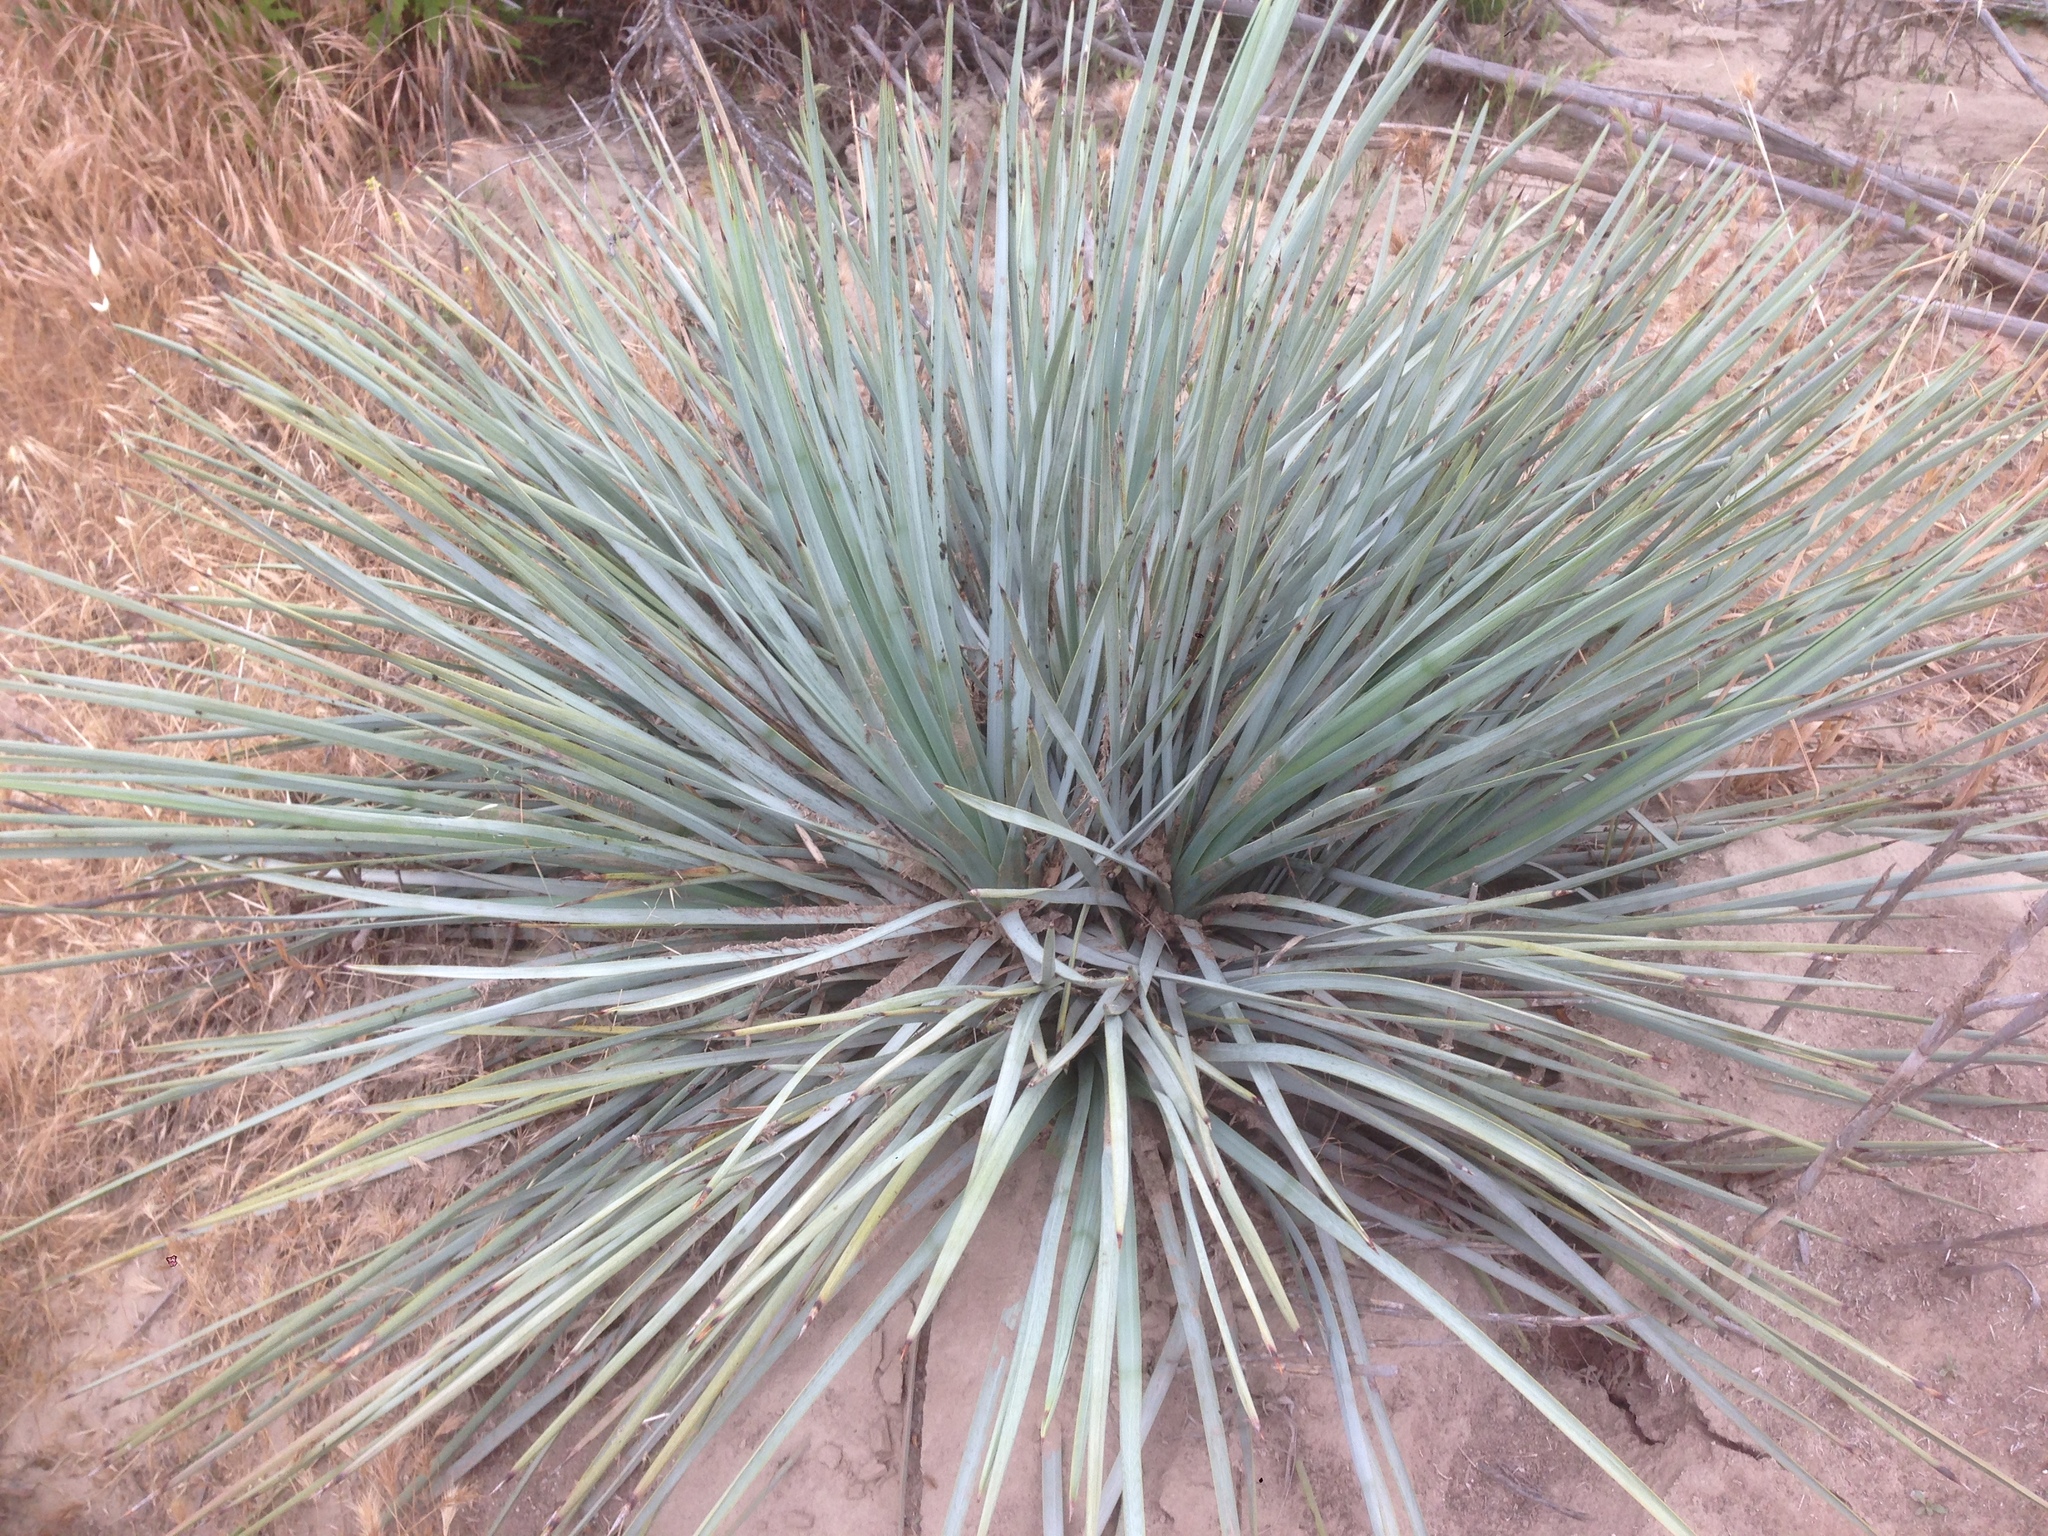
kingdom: Plantae
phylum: Tracheophyta
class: Liliopsida
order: Asparagales
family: Asparagaceae
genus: Hesperoyucca
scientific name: Hesperoyucca whipplei
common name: Our lord's-candle
